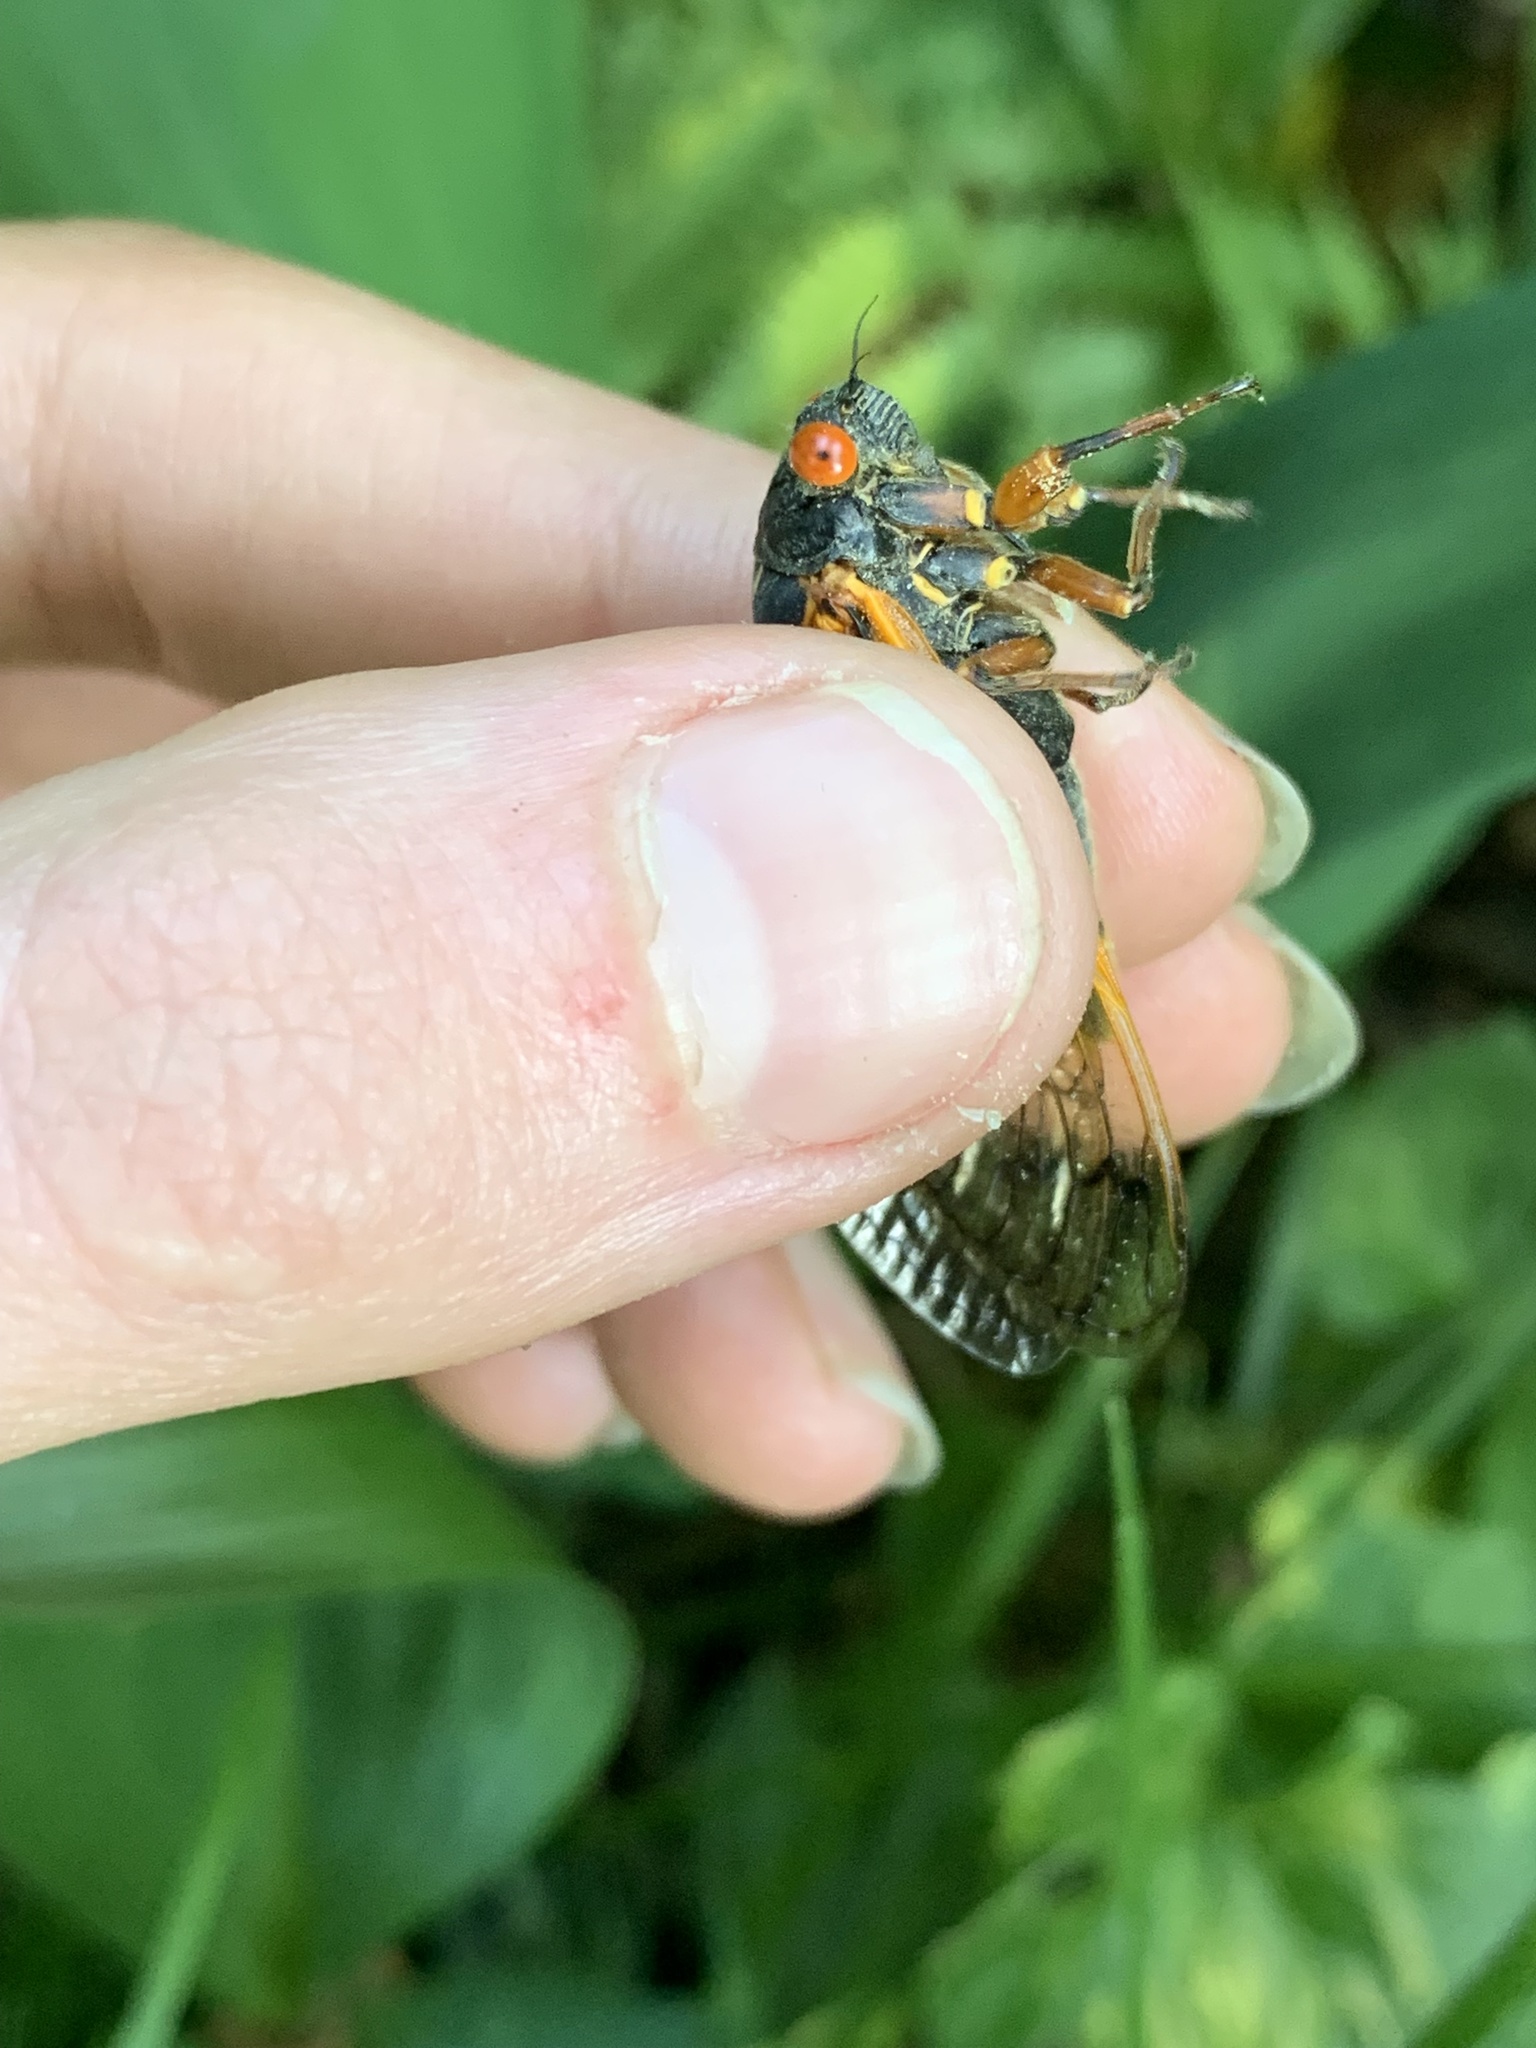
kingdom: Animalia
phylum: Arthropoda
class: Insecta
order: Hemiptera
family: Cicadidae
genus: Magicicada
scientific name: Magicicada cassini
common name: Cassin's 17-year cicada
